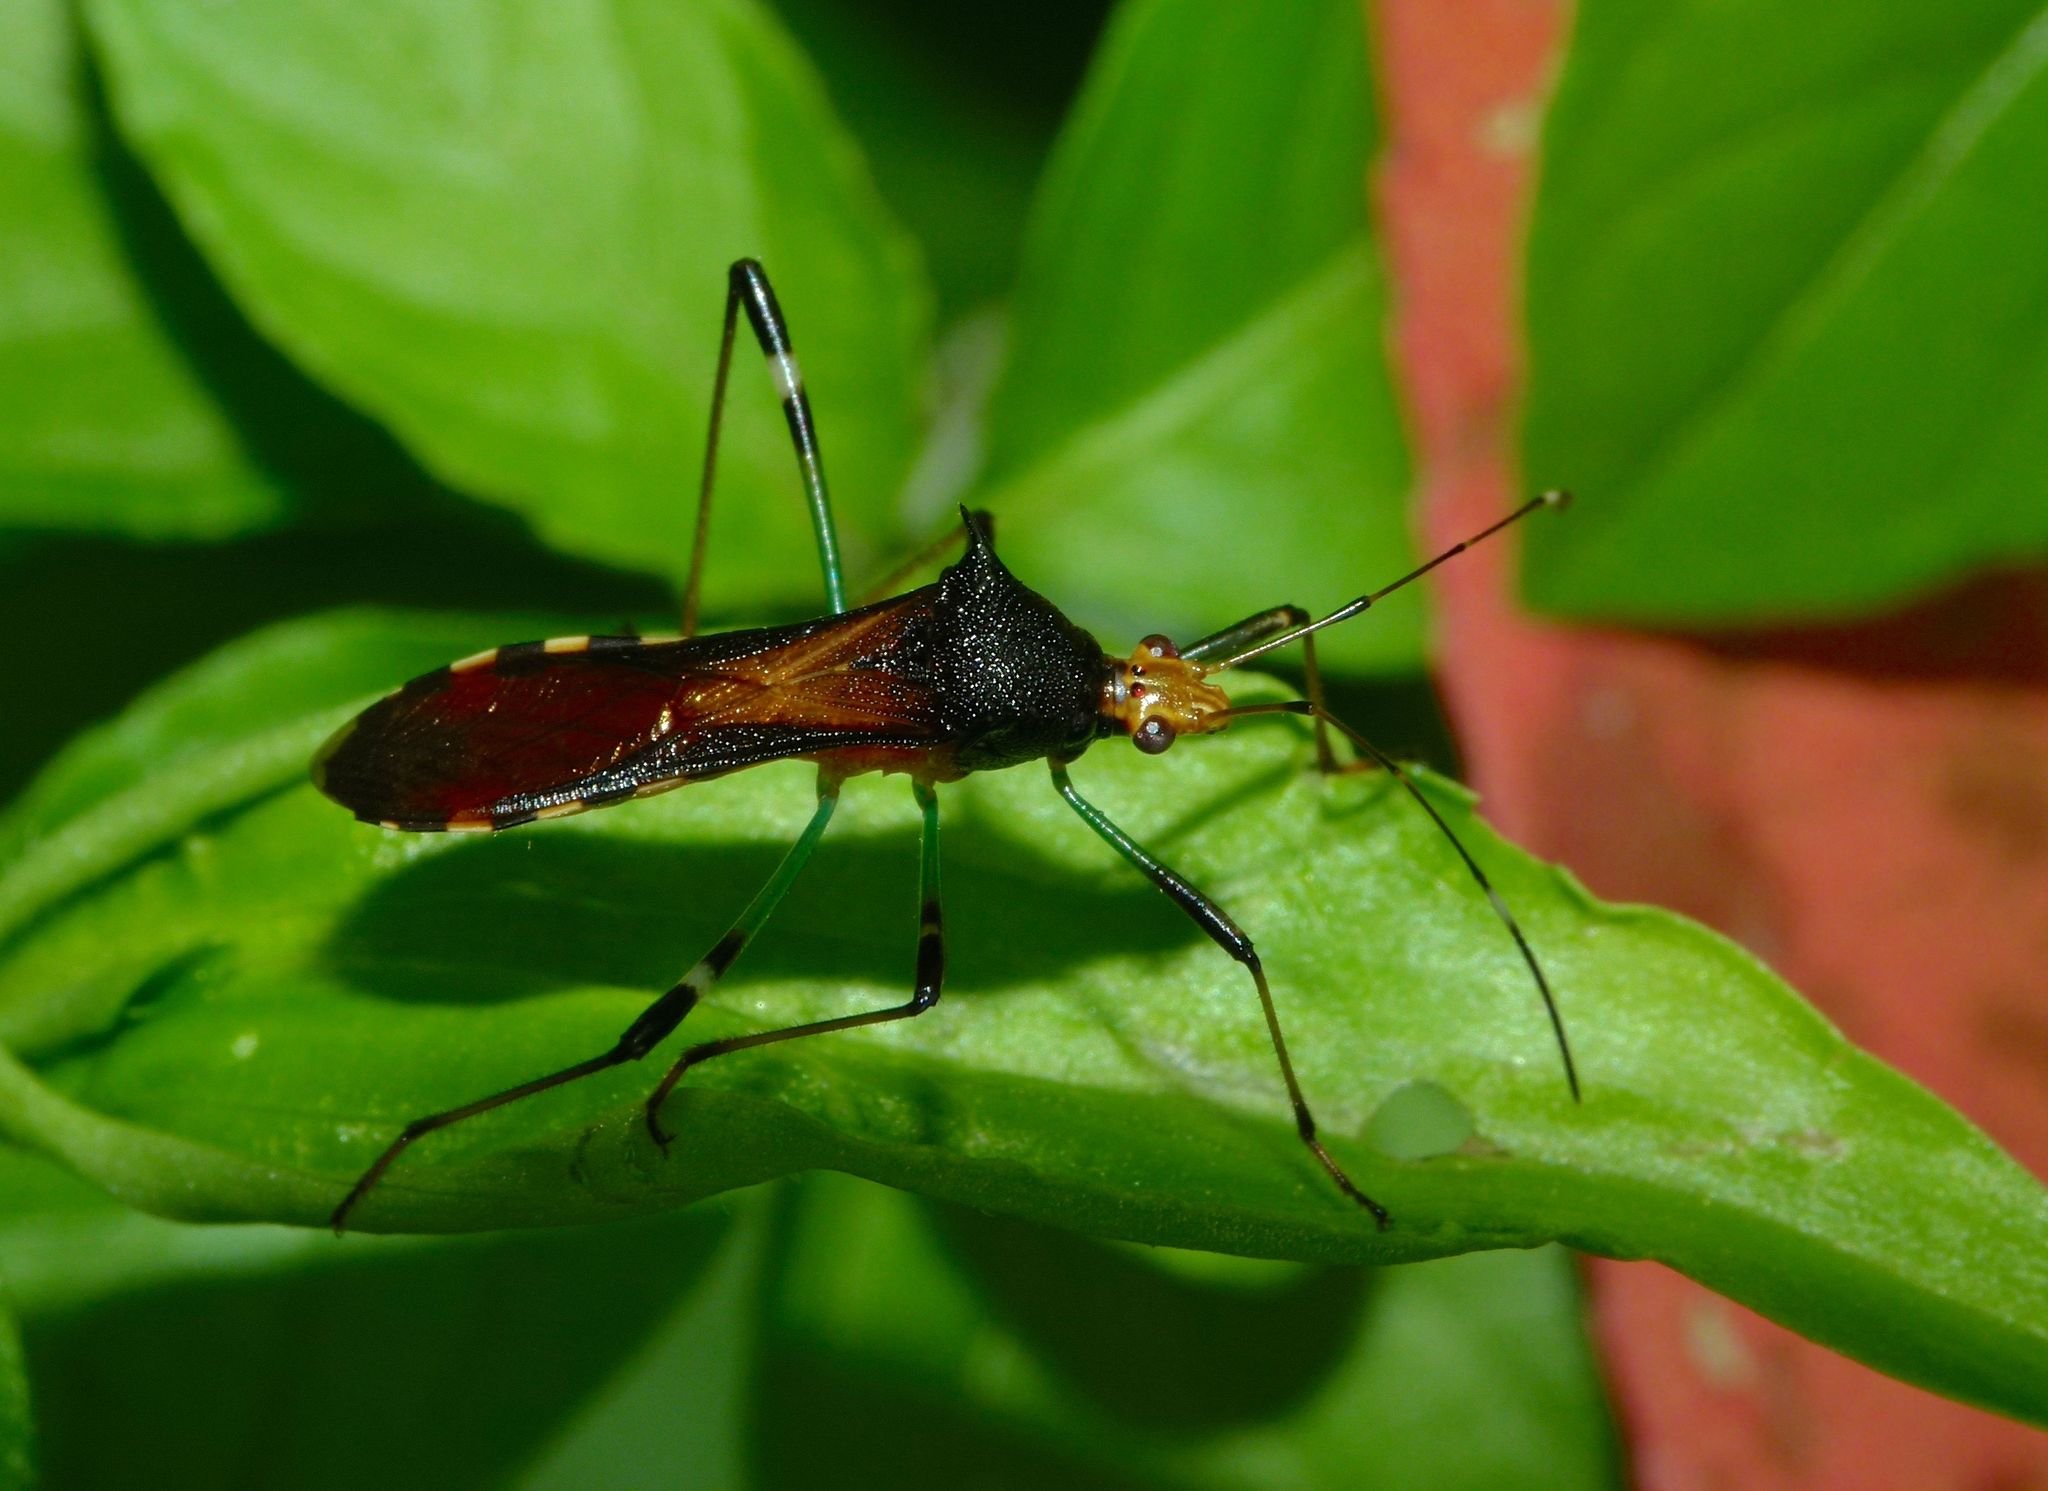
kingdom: Animalia
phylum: Arthropoda
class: Insecta
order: Hemiptera
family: Alydidae
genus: Noliphus
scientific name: Noliphus erythrocephalus
